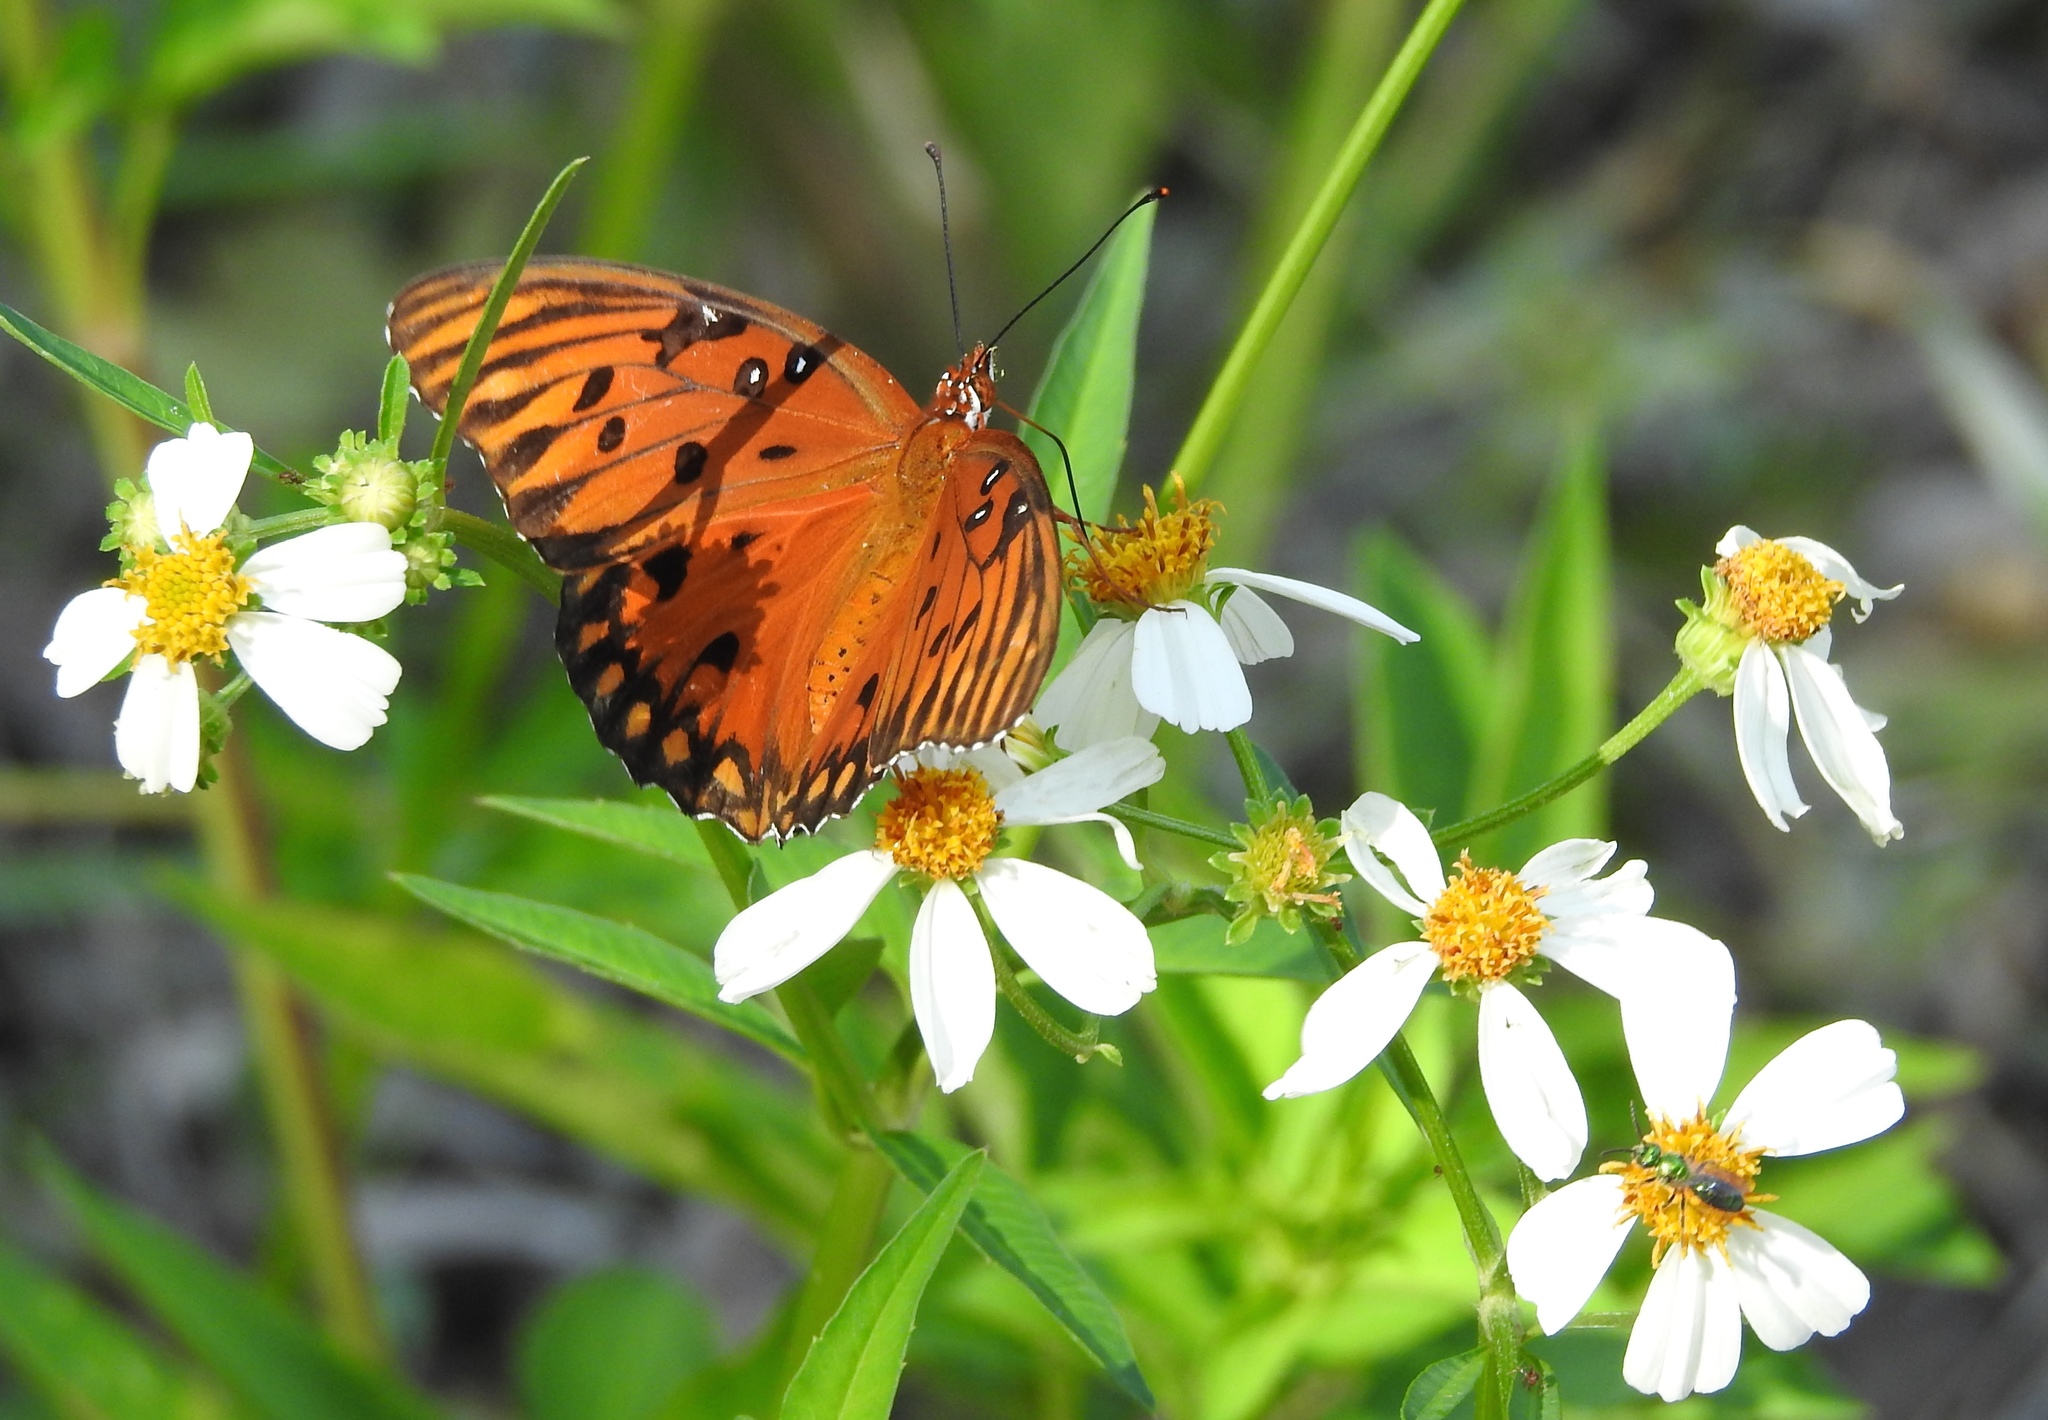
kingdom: Animalia
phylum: Arthropoda
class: Insecta
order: Lepidoptera
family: Nymphalidae
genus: Dione
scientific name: Dione vanillae
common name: Gulf fritillary
